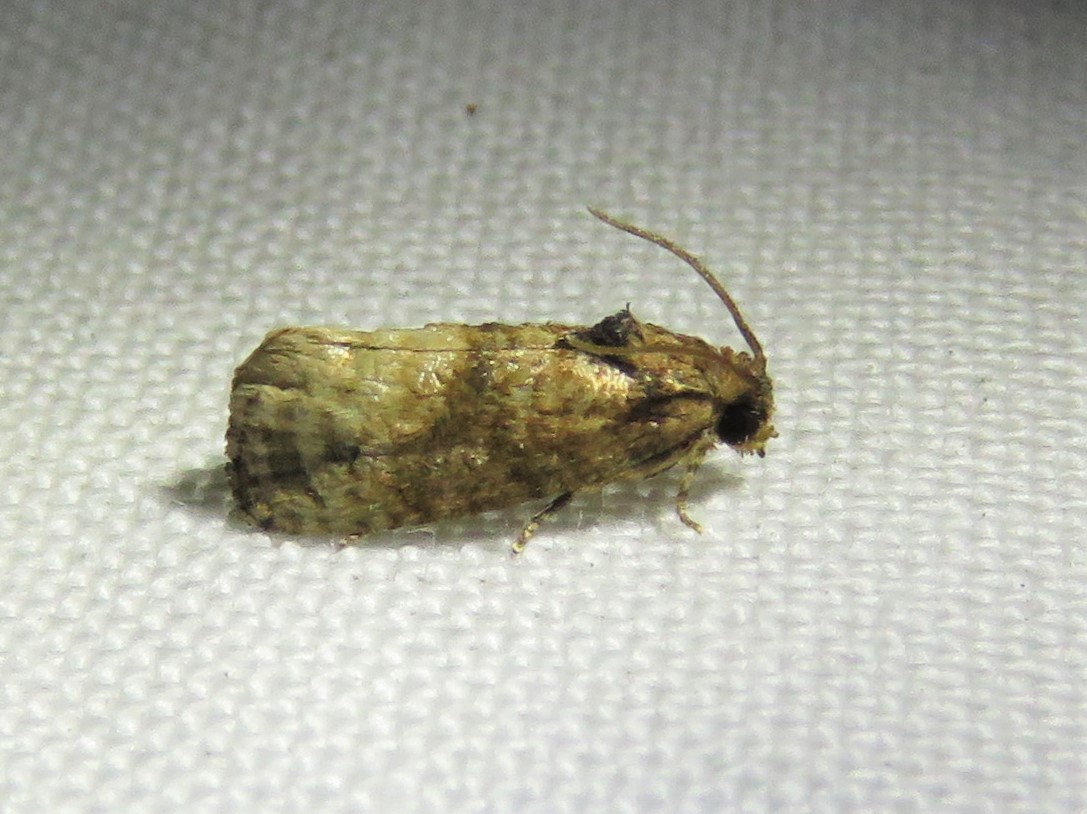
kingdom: Animalia
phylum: Arthropoda
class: Insecta
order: Lepidoptera
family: Tortricidae
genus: Ecdytolopha
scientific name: Ecdytolopha mana
